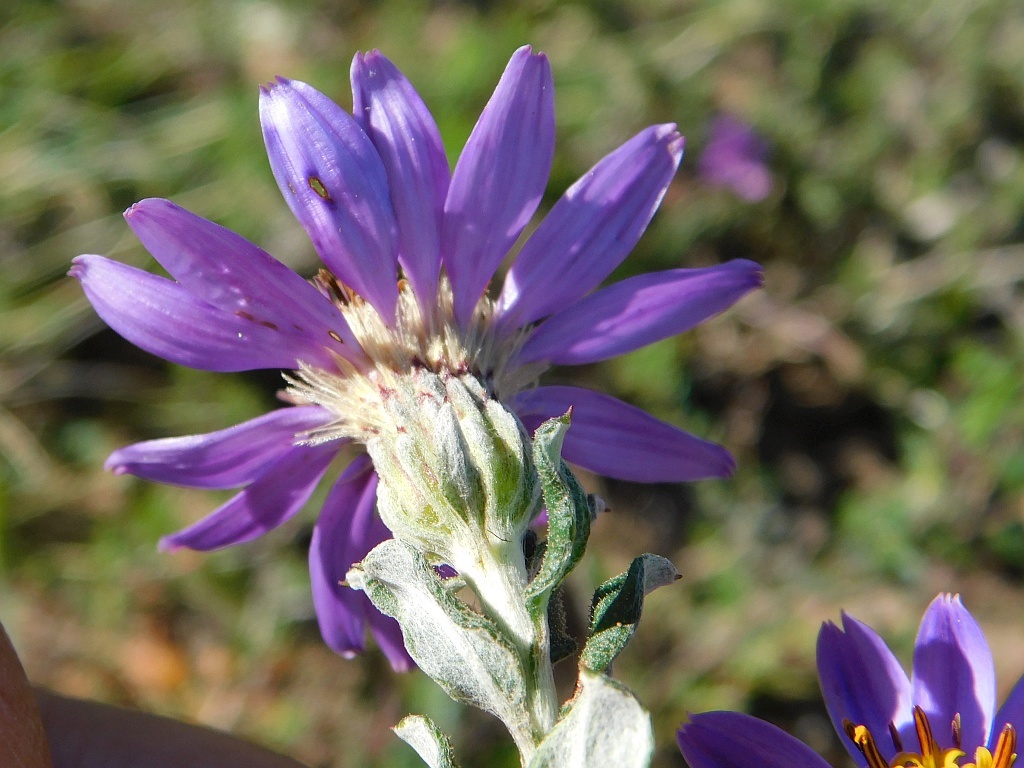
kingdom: Plantae
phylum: Tracheophyta
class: Magnoliopsida
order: Asterales
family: Asteraceae
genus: Printzia
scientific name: Printzia polifolia
